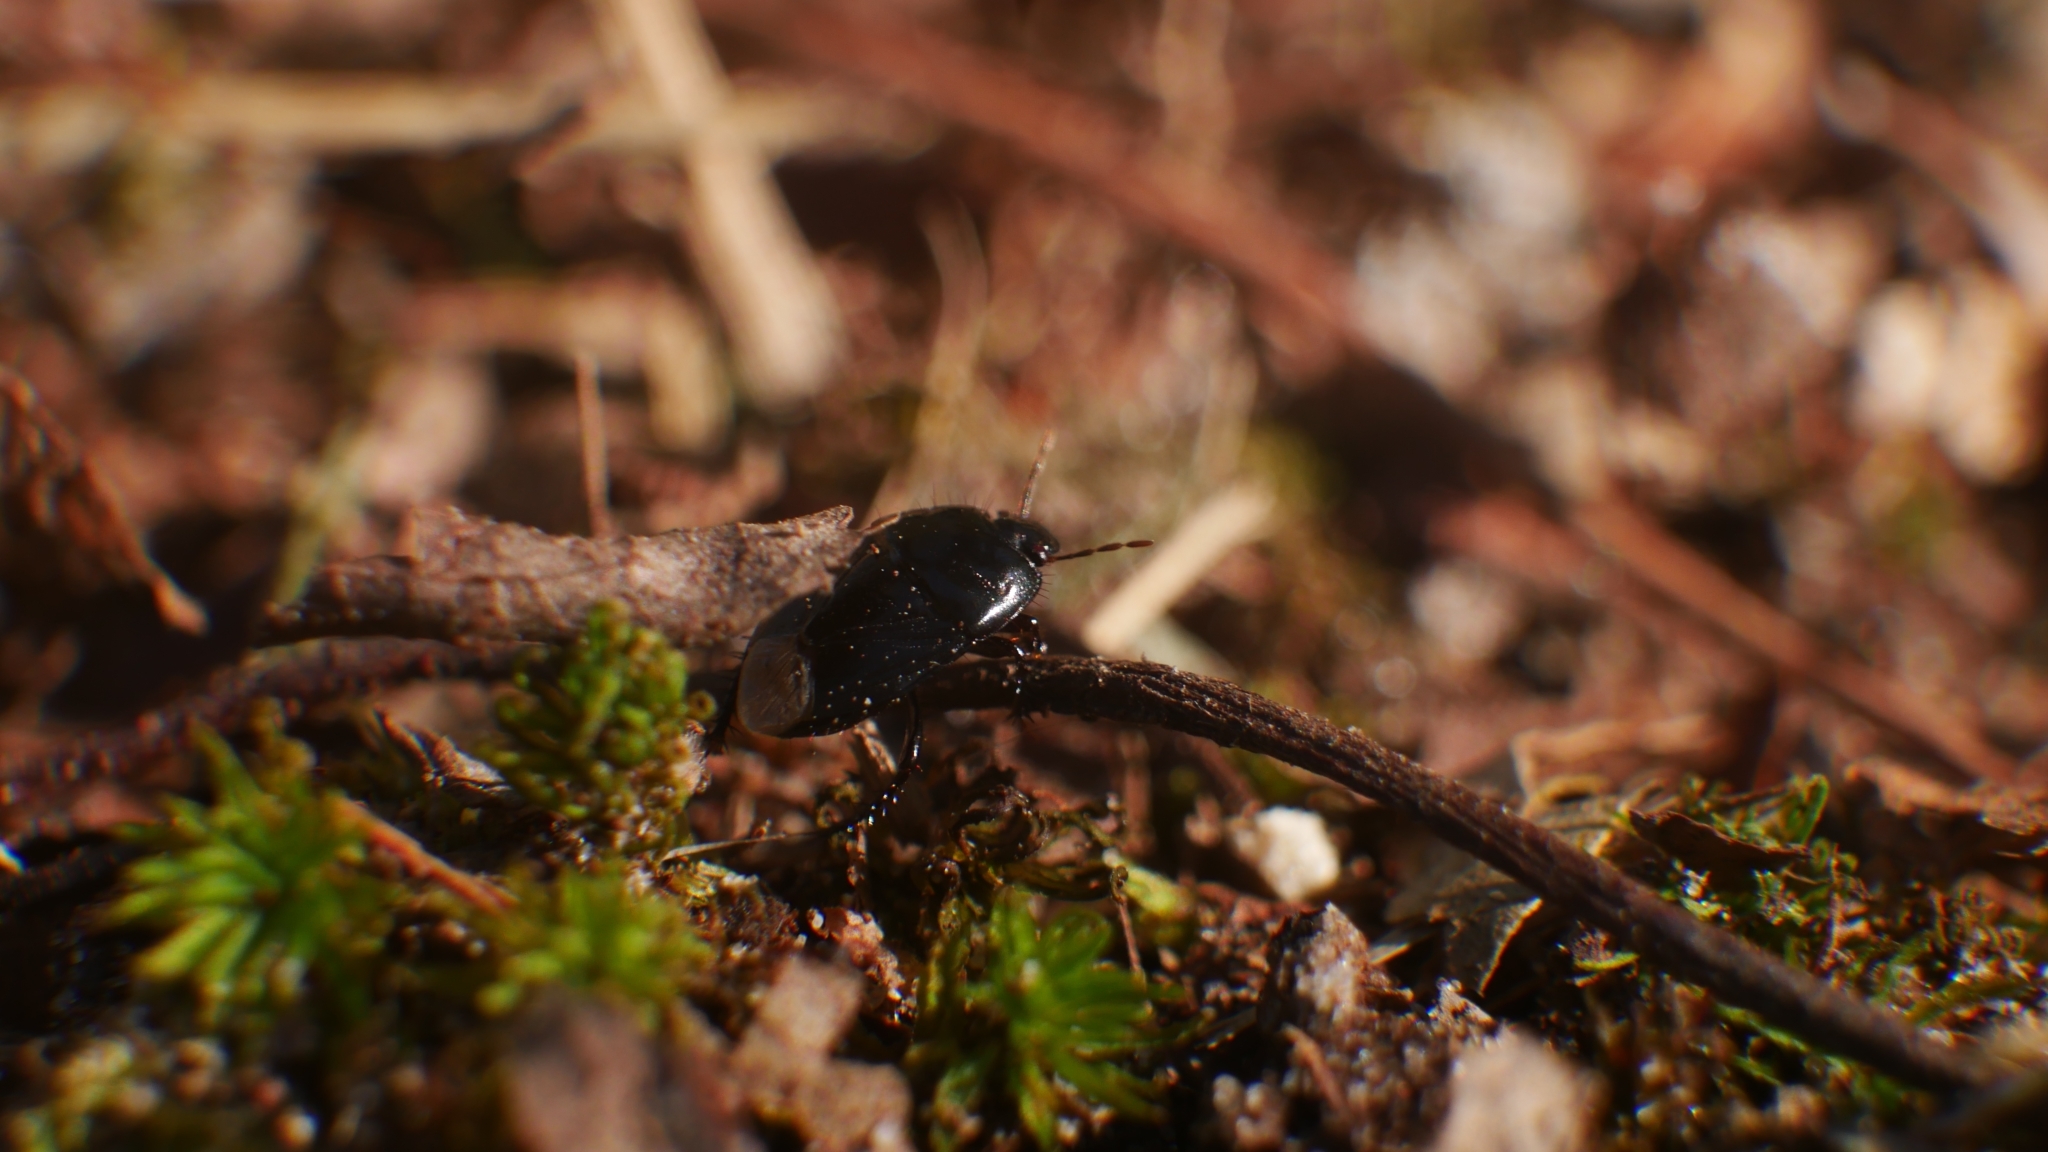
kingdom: Animalia
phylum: Arthropoda
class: Insecta
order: Hemiptera
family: Cydnidae
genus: Pangaeus
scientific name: Pangaeus bilineatus
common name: Burrower bug
